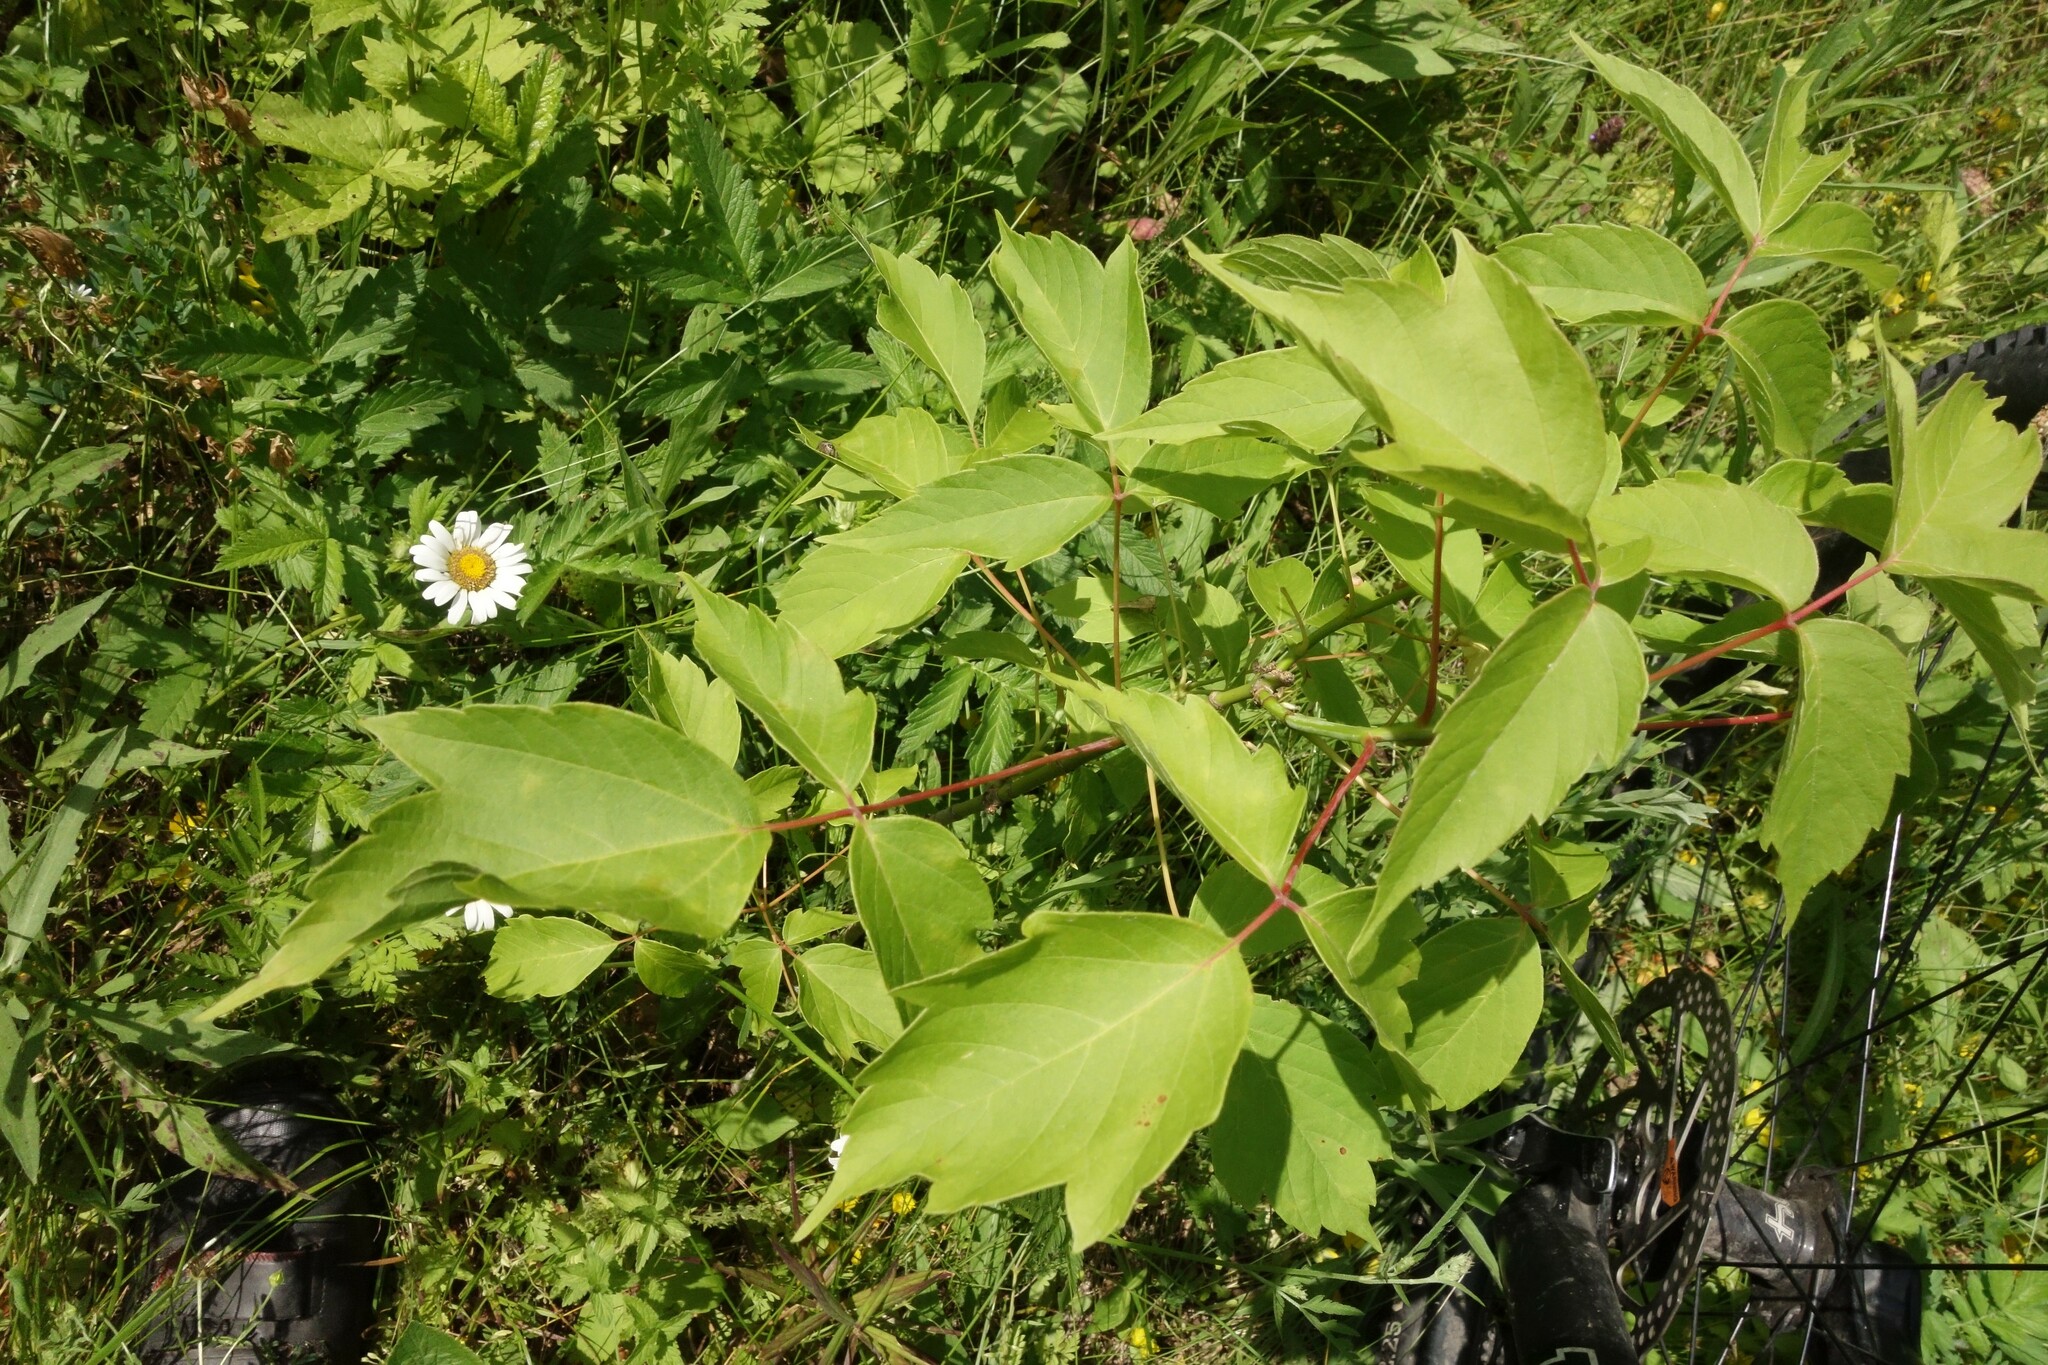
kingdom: Plantae
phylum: Tracheophyta
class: Magnoliopsida
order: Sapindales
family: Sapindaceae
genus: Acer
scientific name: Acer negundo
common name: Ashleaf maple
